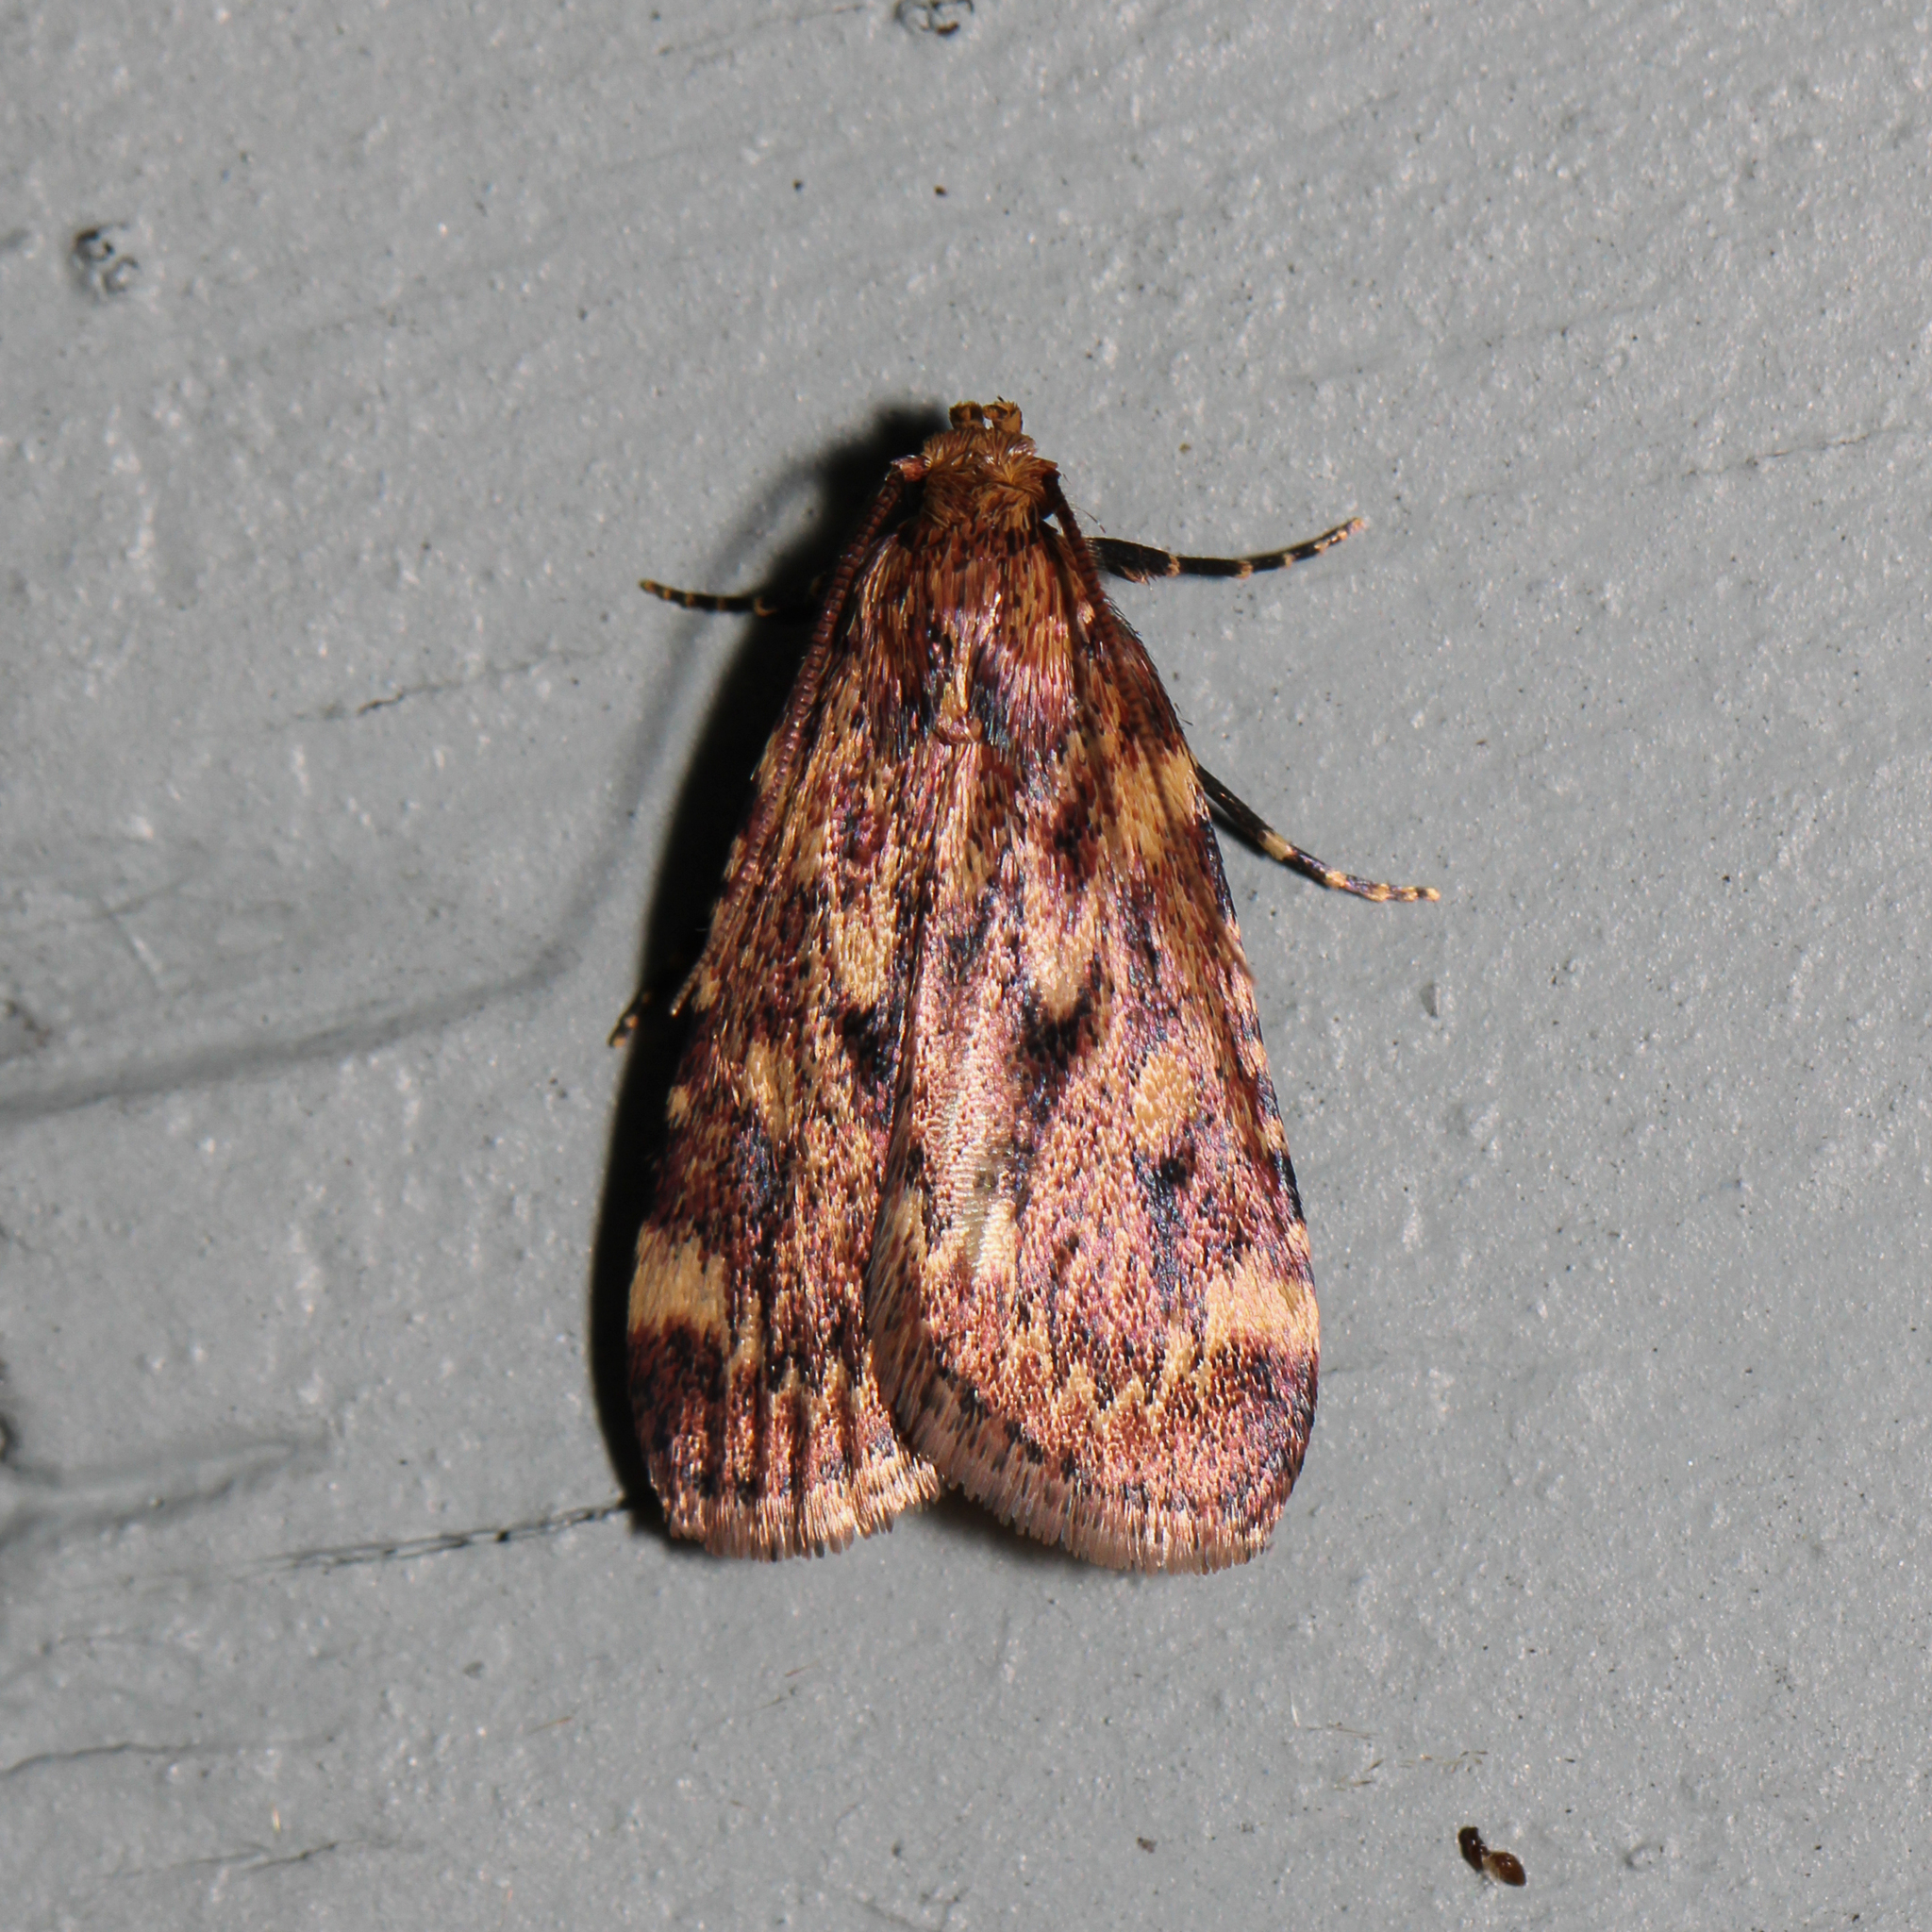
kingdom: Animalia
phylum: Arthropoda
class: Insecta
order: Lepidoptera
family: Pyralidae
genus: Aglossa
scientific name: Aglossa cuprina
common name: Grease moth
